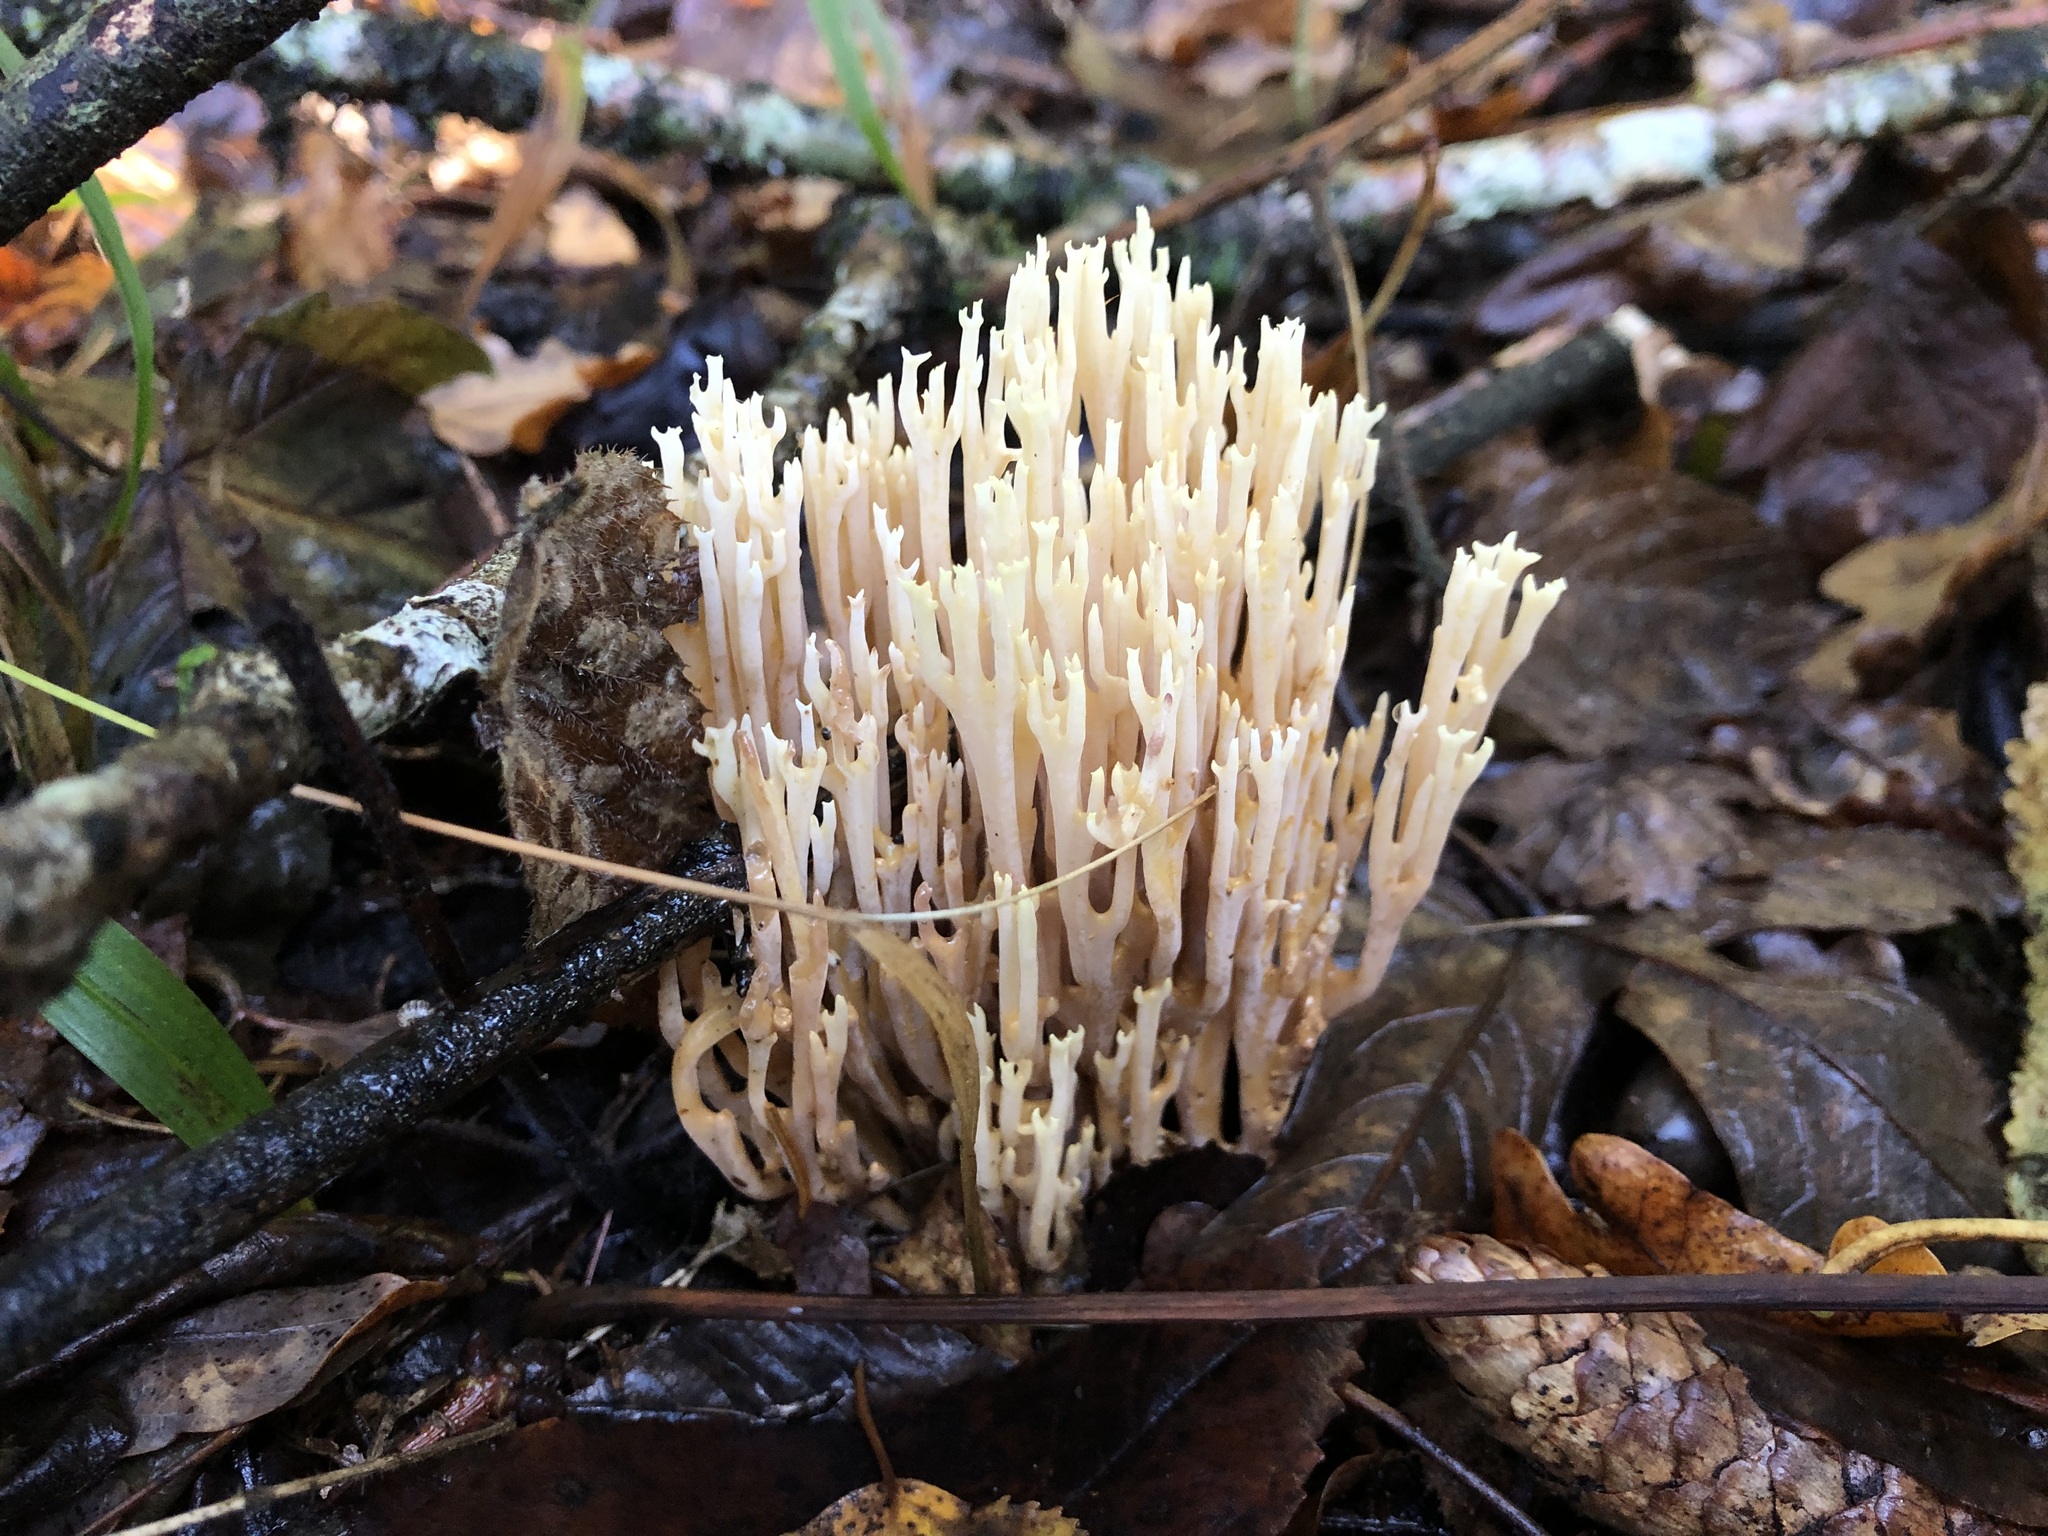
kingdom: Fungi
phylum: Basidiomycota
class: Agaricomycetes
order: Gomphales
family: Gomphaceae
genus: Ramaria
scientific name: Ramaria stricta
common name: Upright coral
